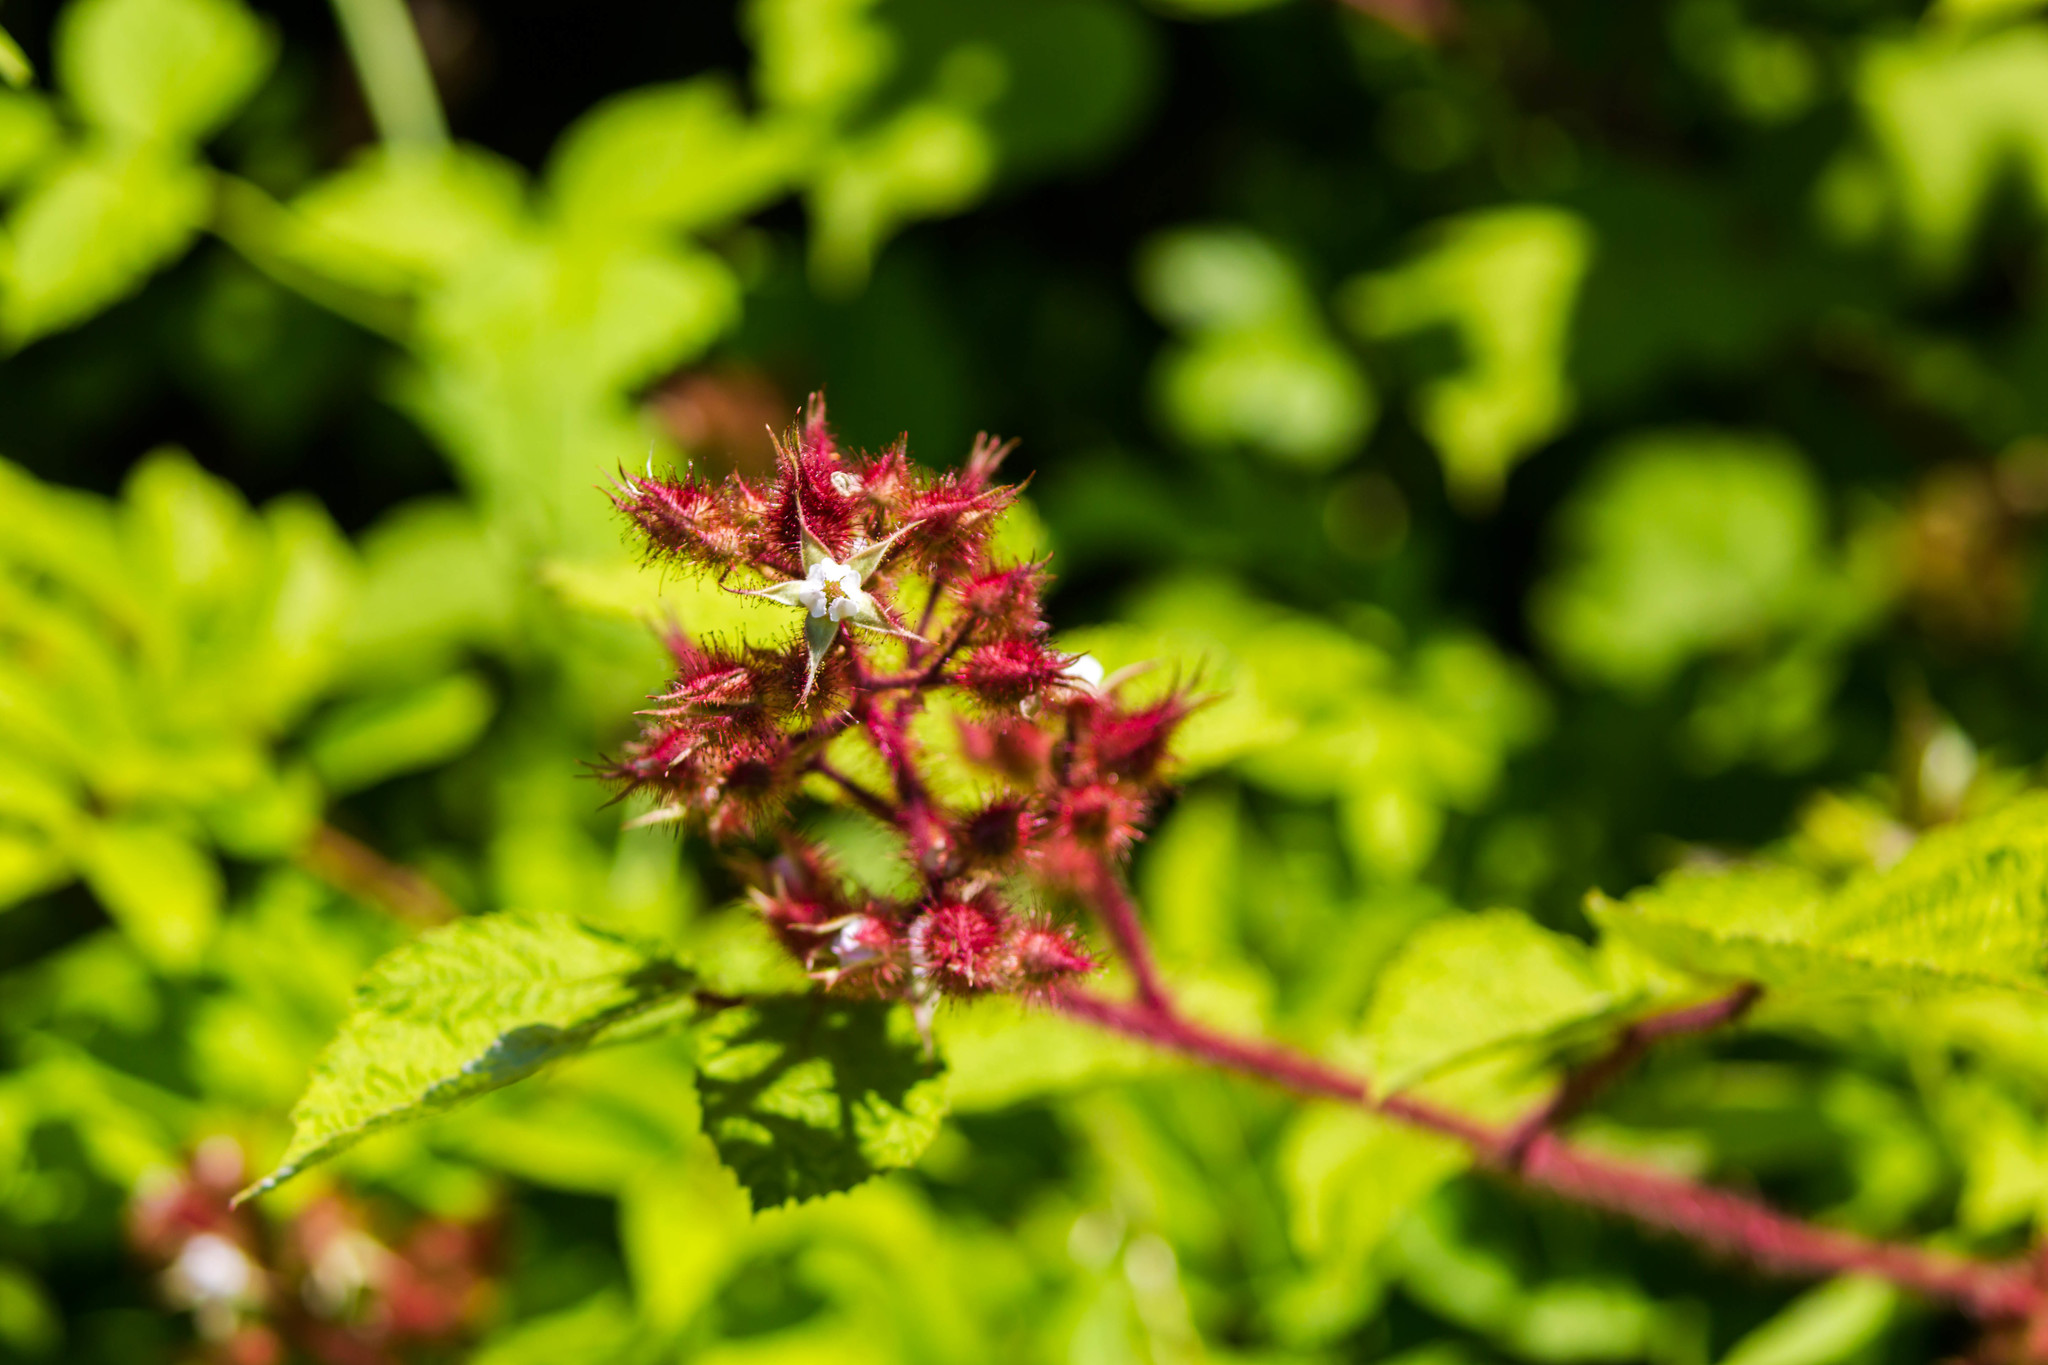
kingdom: Plantae
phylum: Tracheophyta
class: Magnoliopsida
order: Rosales
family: Rosaceae
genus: Rubus
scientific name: Rubus phoenicolasius
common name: Japanese wineberry
